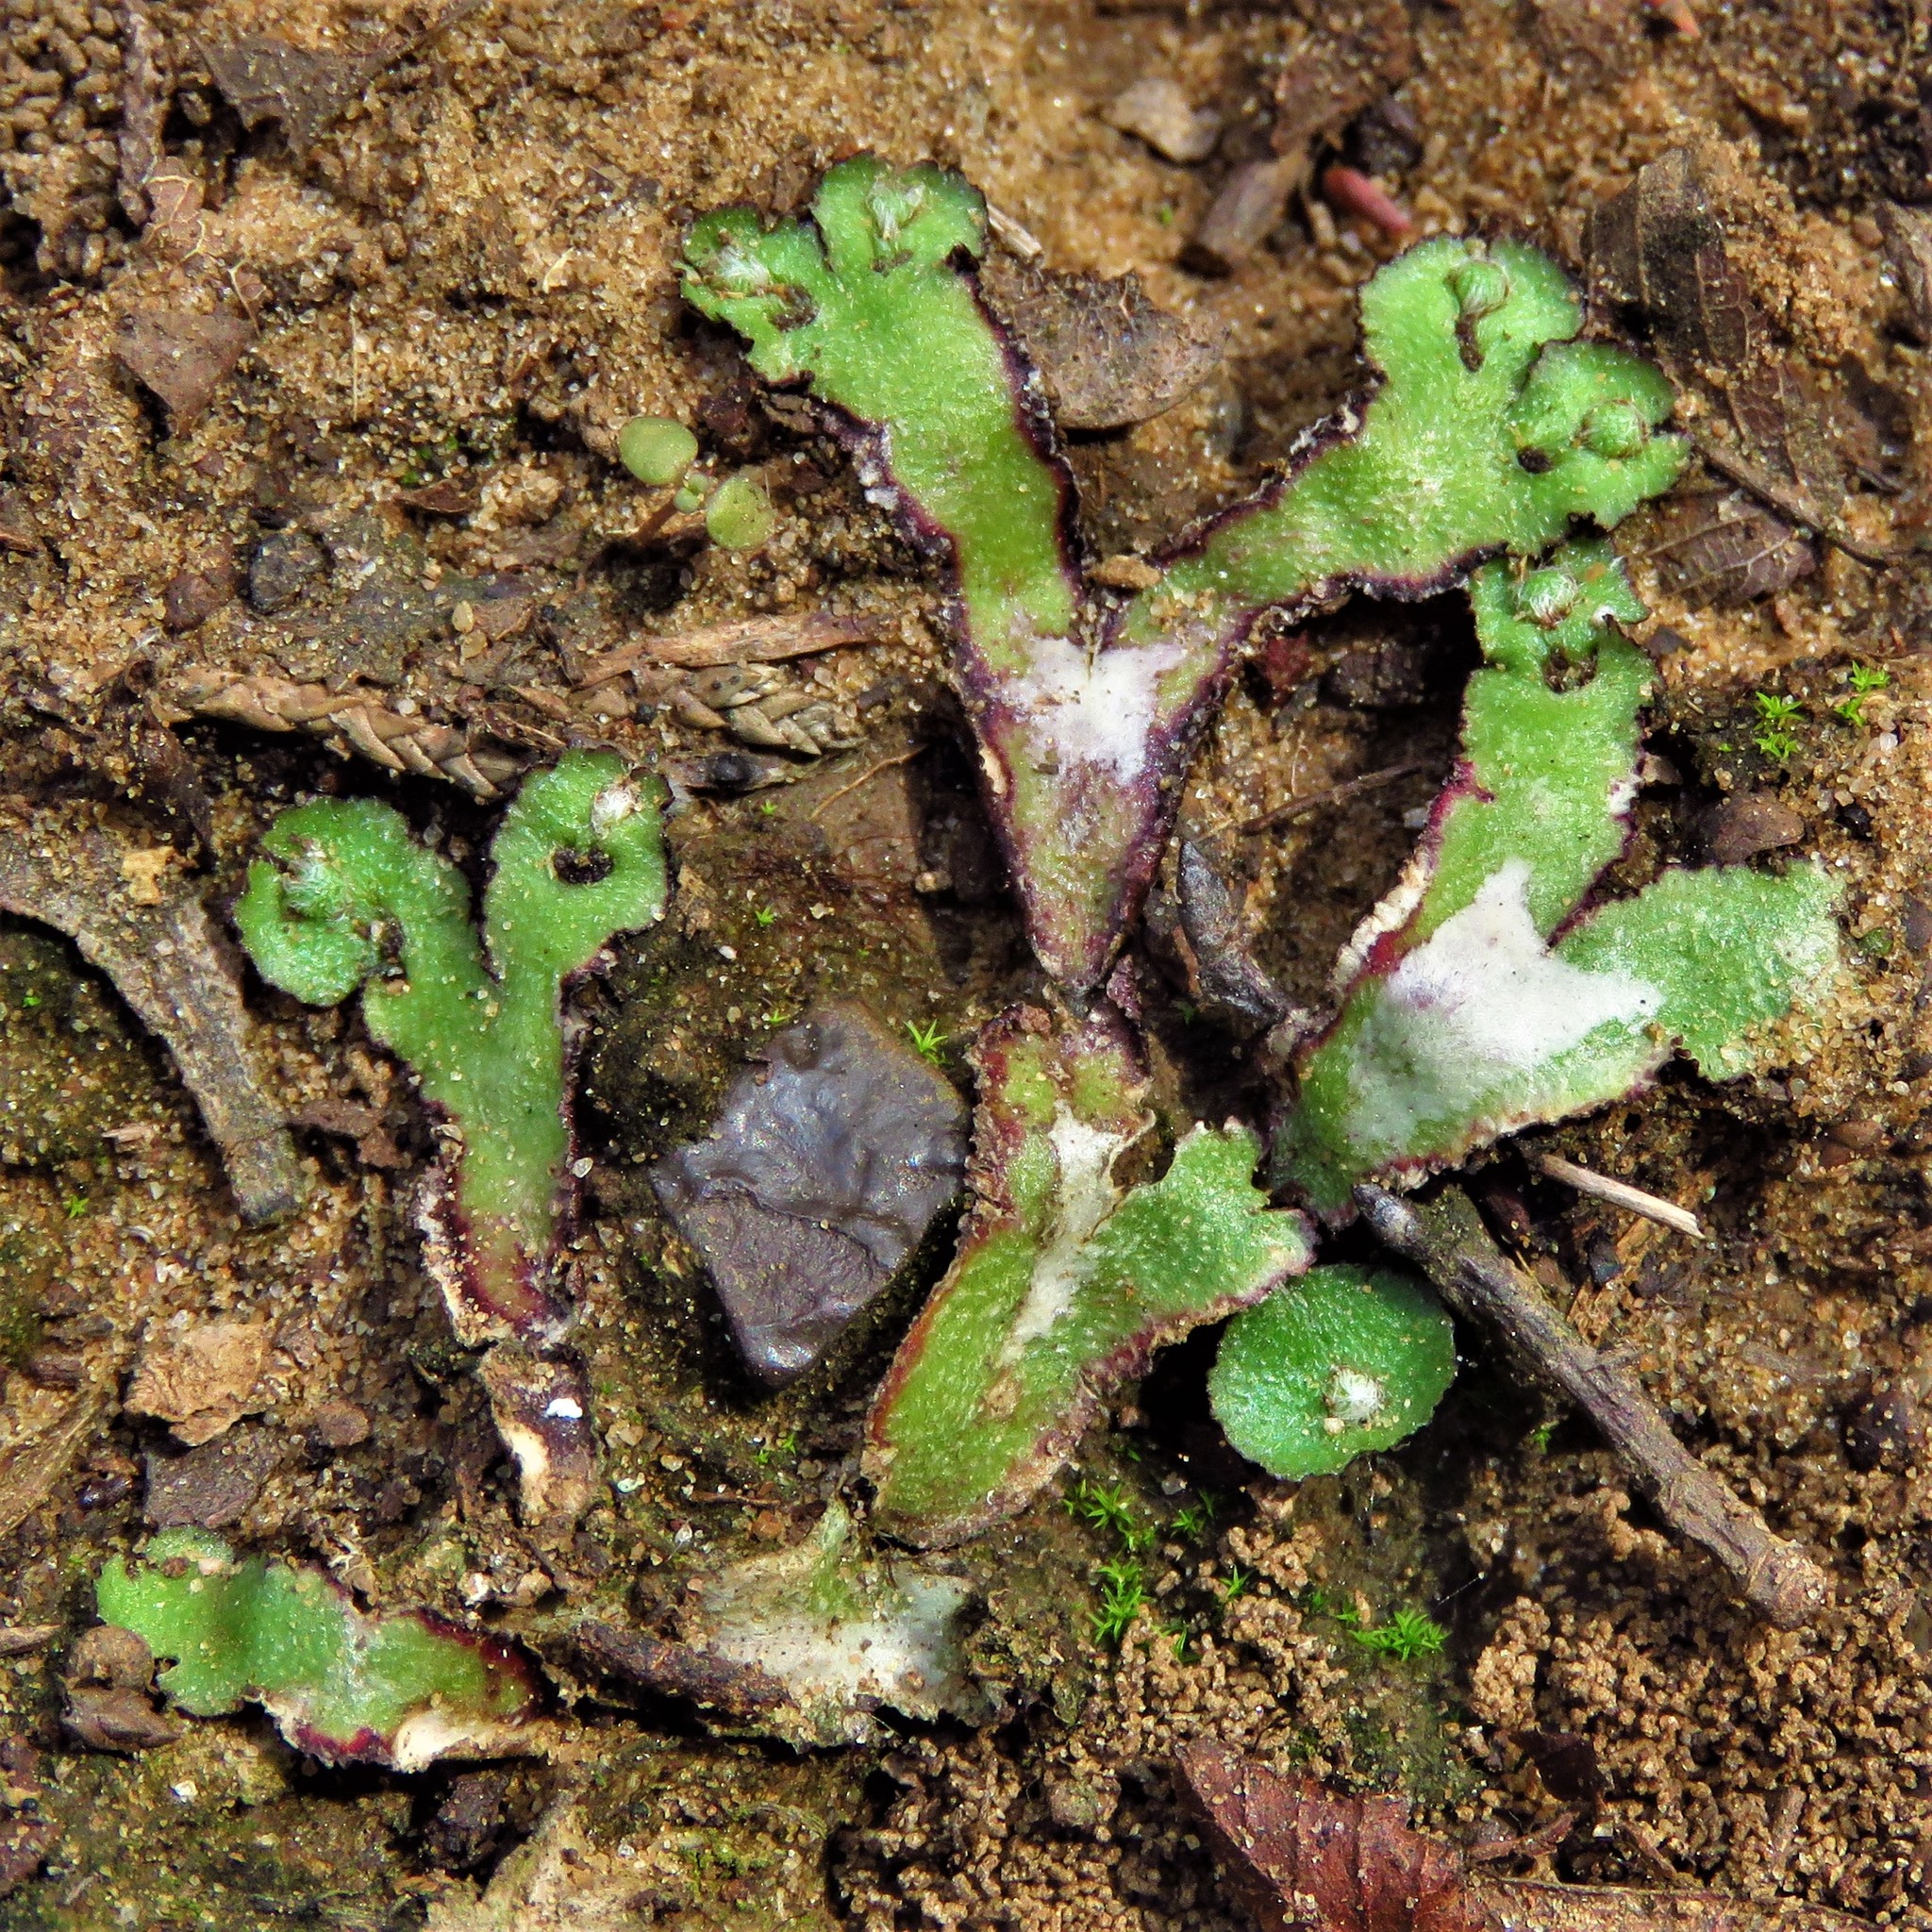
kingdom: Plantae
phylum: Marchantiophyta
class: Marchantiopsida
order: Marchantiales
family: Aytoniaceae
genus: Reboulia
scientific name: Reboulia hemisphaerica
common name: Purple-margined liverwort
